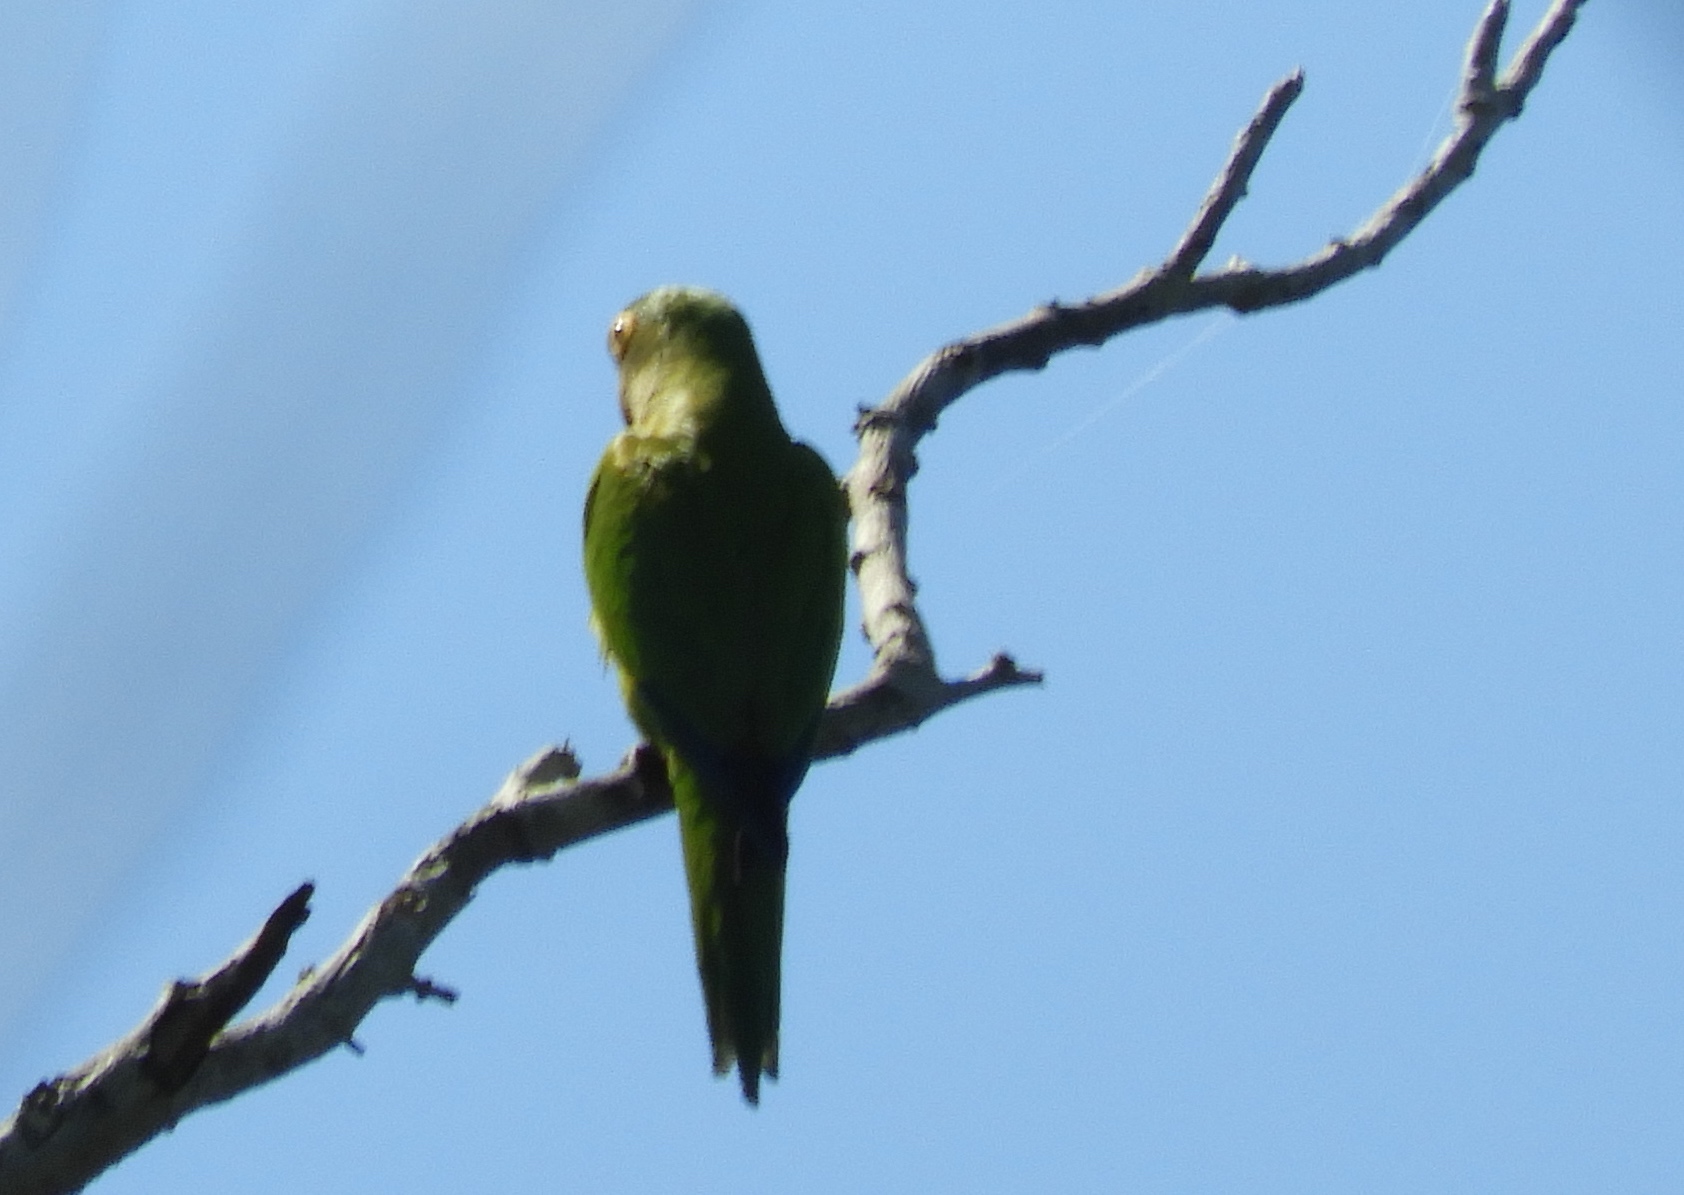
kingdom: Animalia
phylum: Chordata
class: Aves
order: Psittaciformes
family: Psittacidae
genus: Aratinga
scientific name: Aratinga canicularis
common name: Orange-fronted parakeet
